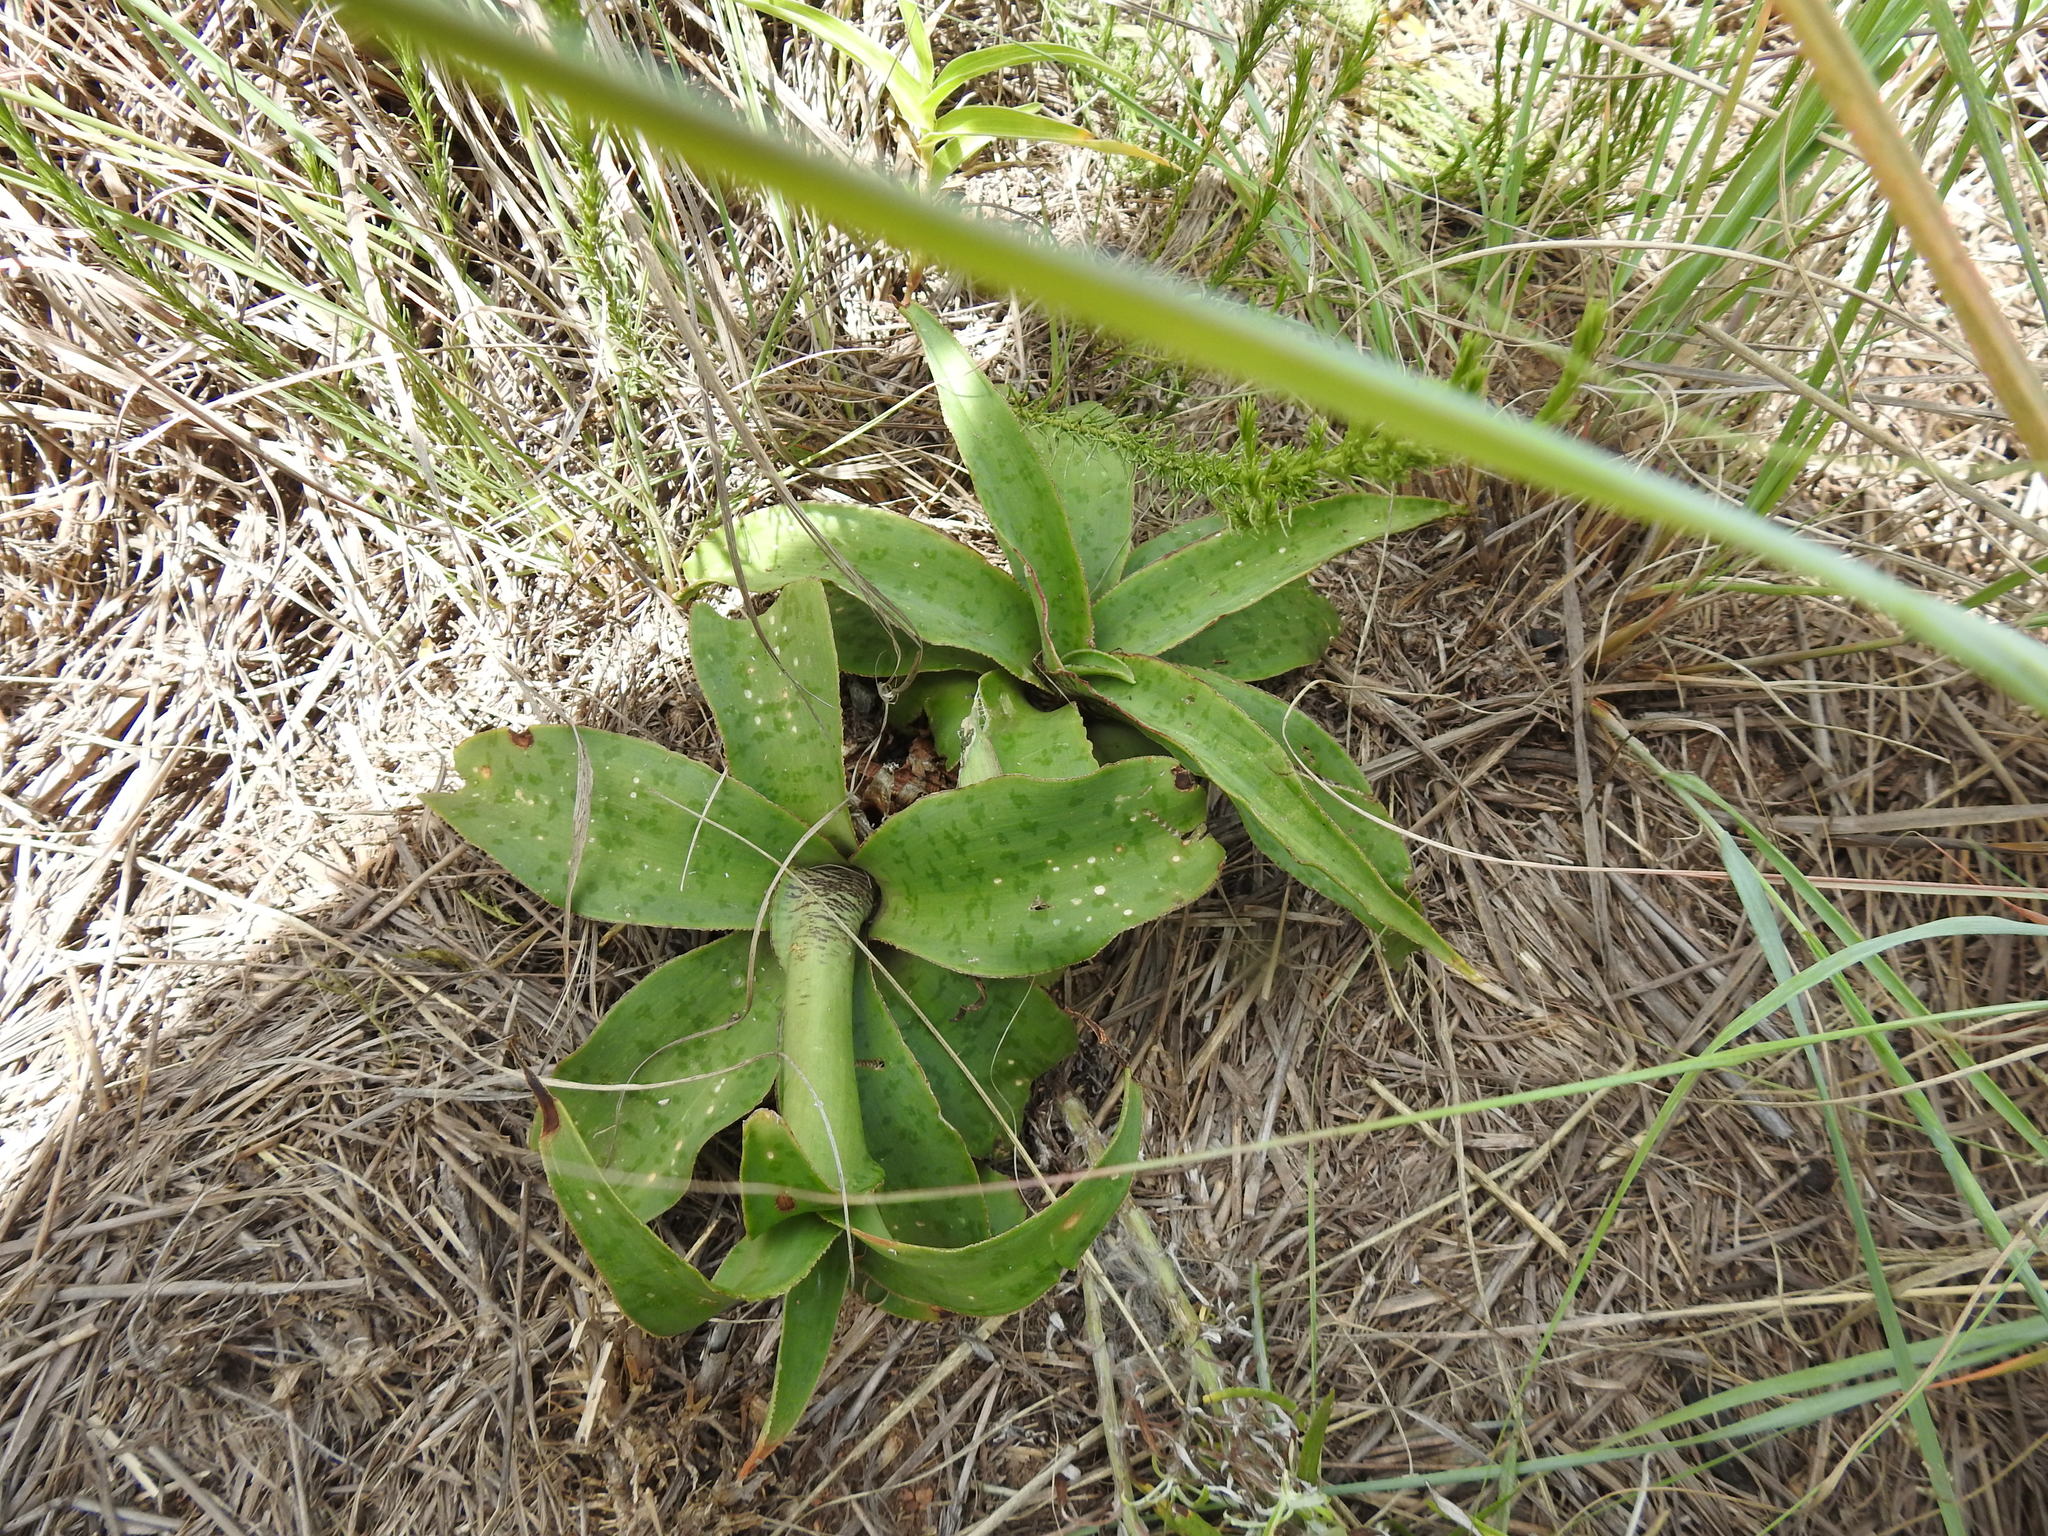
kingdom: Plantae
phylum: Tracheophyta
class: Liliopsida
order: Asparagales
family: Asparagaceae
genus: Ledebouria
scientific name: Ledebouria luteola
